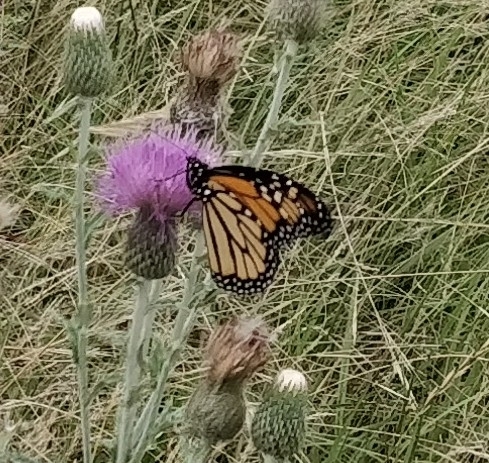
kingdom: Animalia
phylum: Arthropoda
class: Insecta
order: Lepidoptera
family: Nymphalidae
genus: Danaus
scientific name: Danaus plexippus
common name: Monarch
